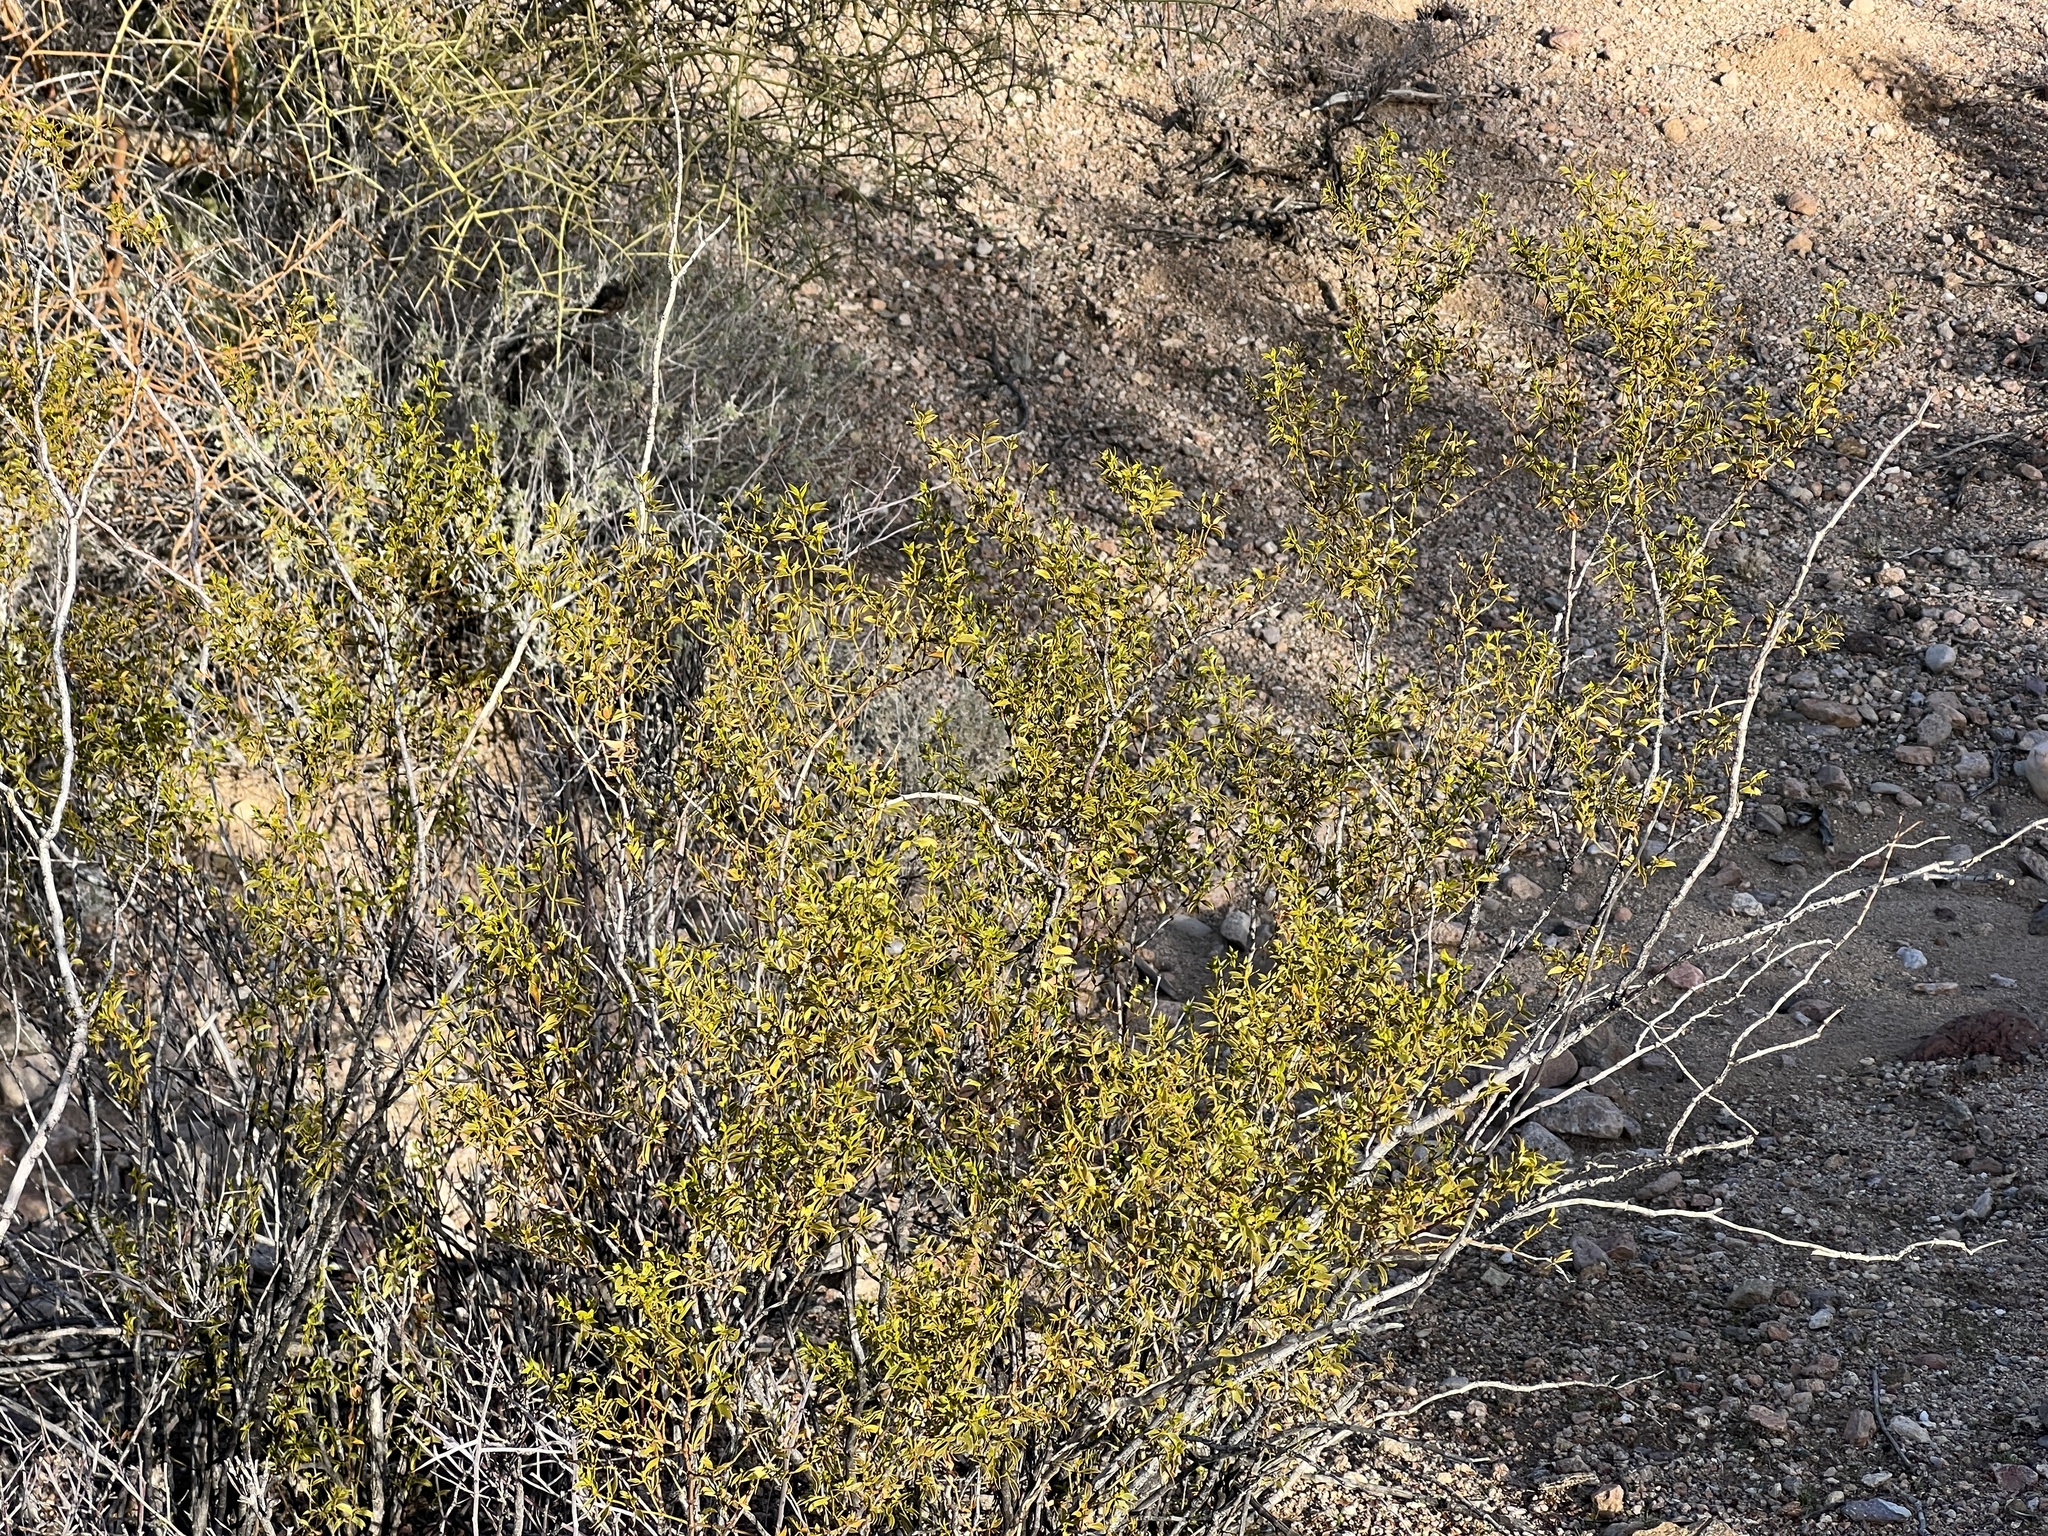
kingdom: Plantae
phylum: Tracheophyta
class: Magnoliopsida
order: Zygophyllales
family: Zygophyllaceae
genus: Larrea
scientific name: Larrea tridentata
